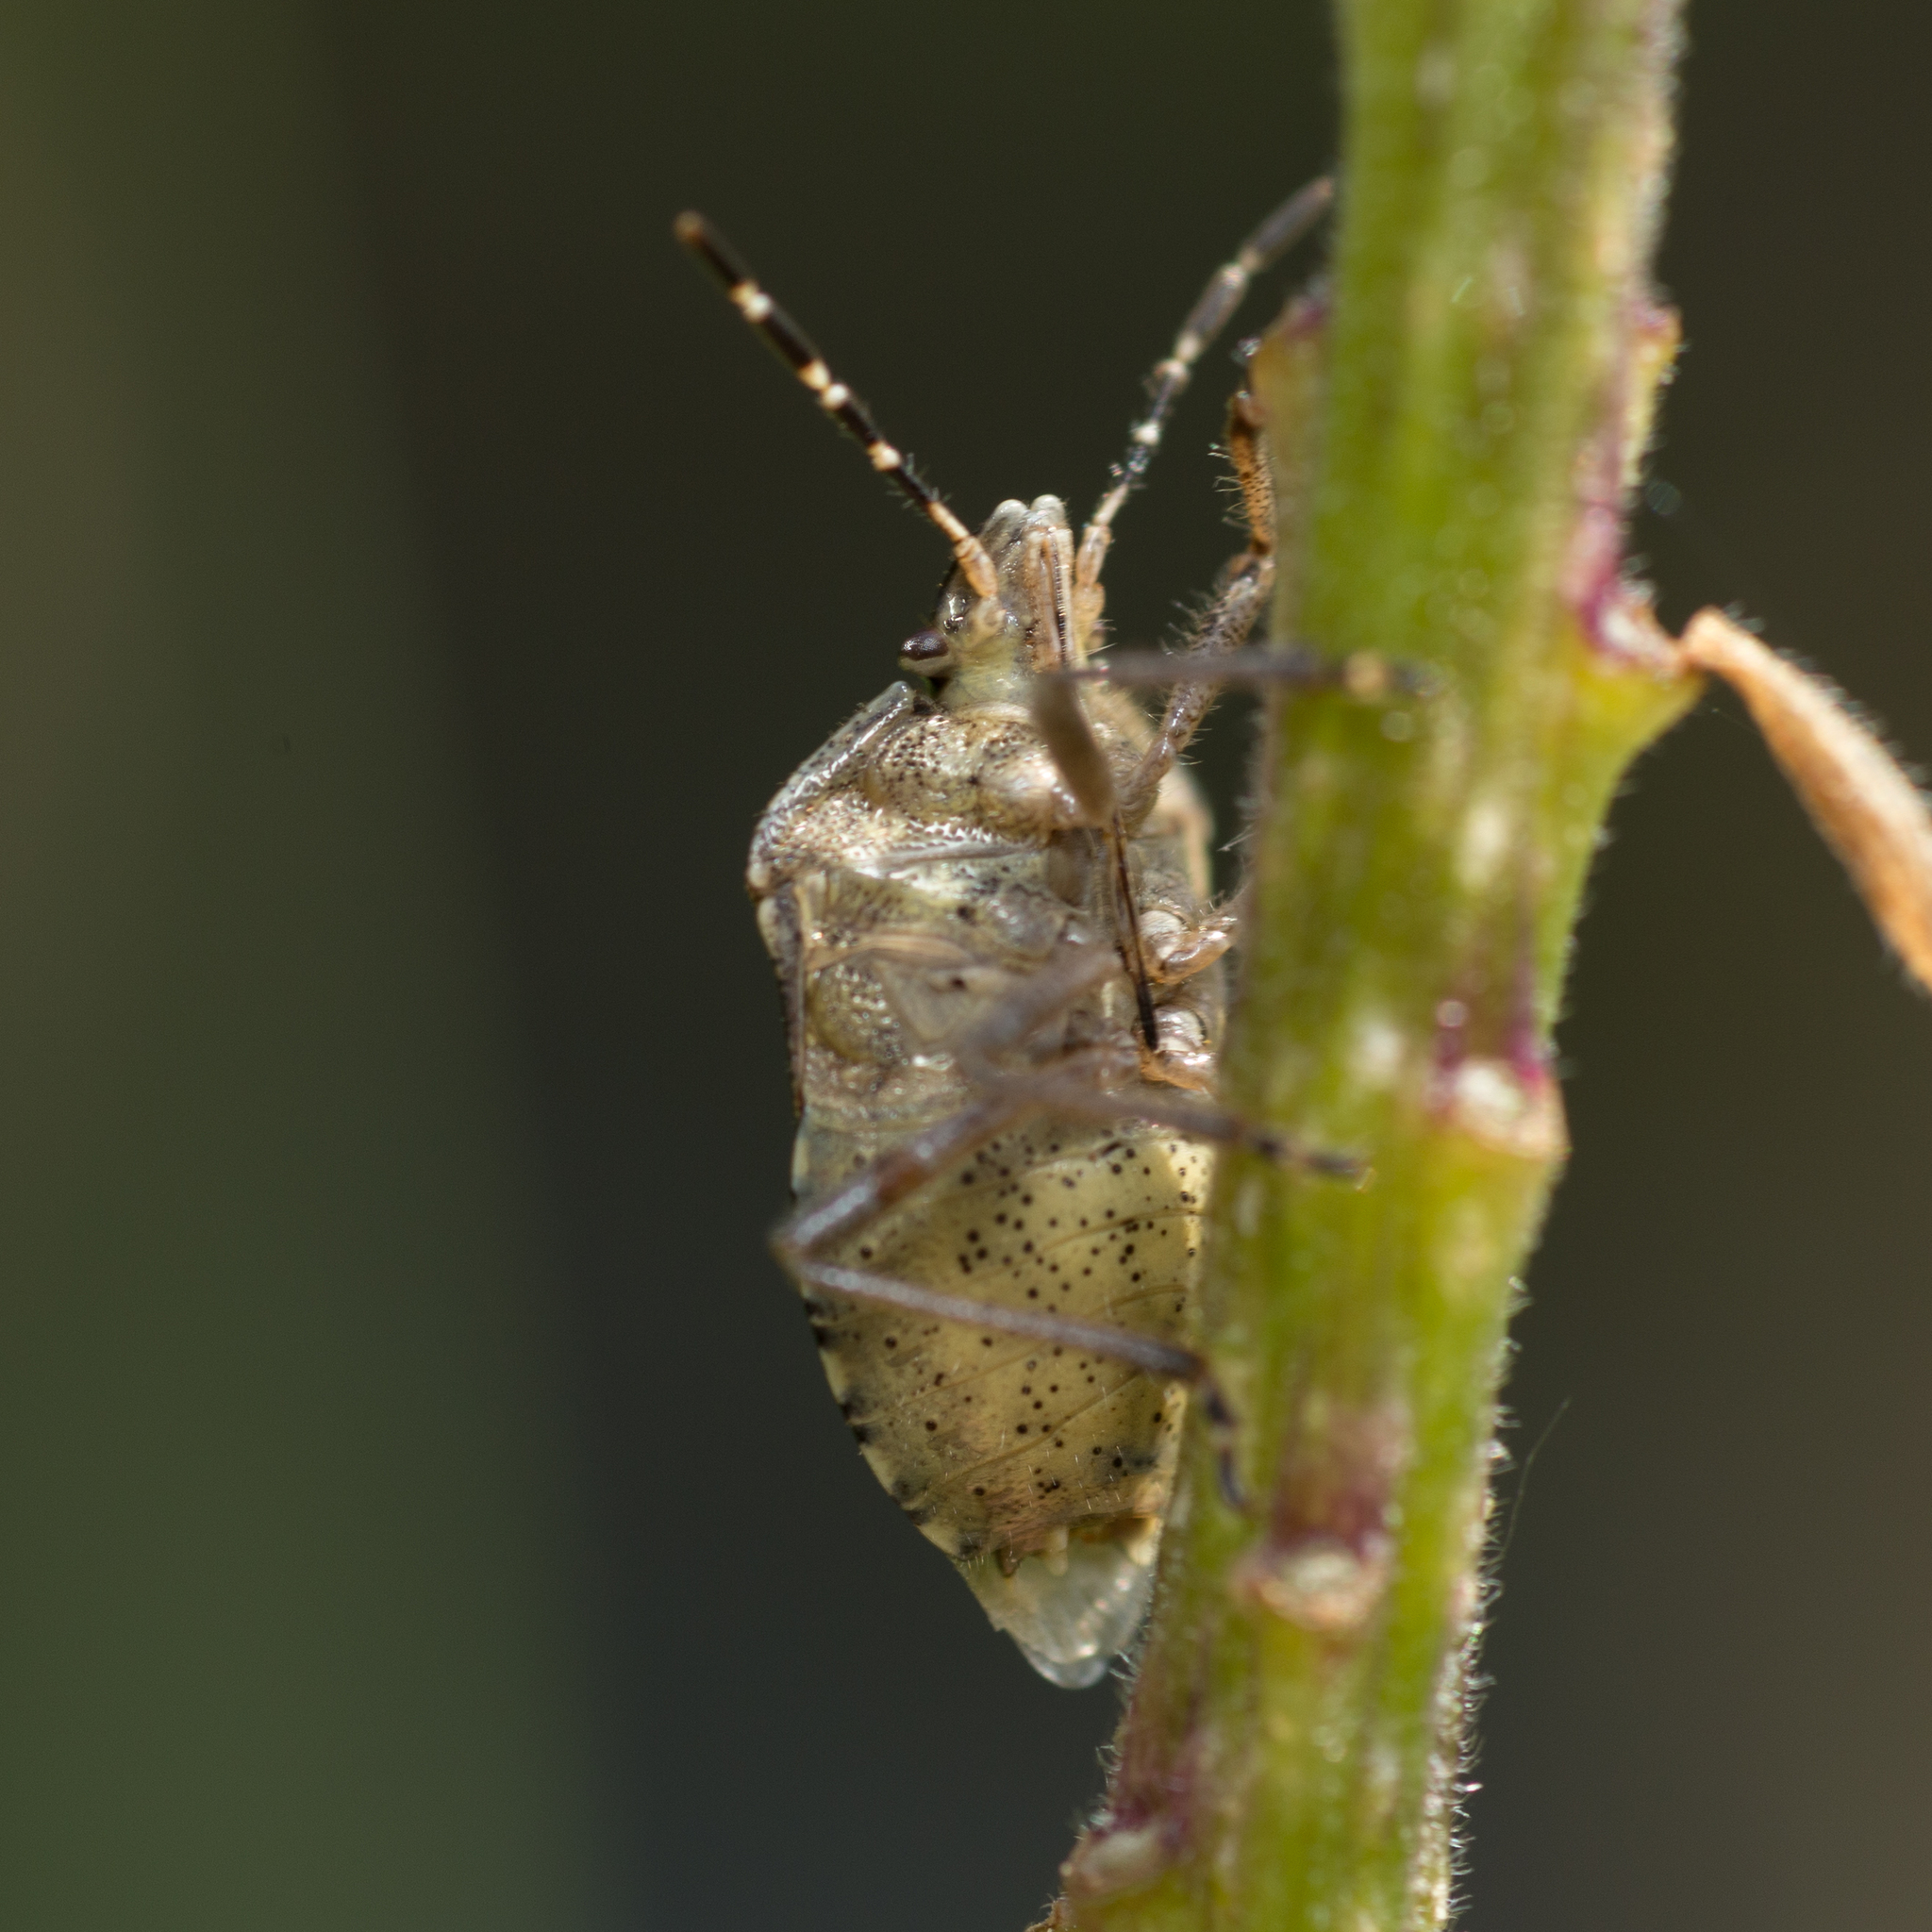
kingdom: Animalia
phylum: Arthropoda
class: Insecta
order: Hemiptera
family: Pentatomidae
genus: Dolycoris
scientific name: Dolycoris baccarum
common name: Sloe bug
